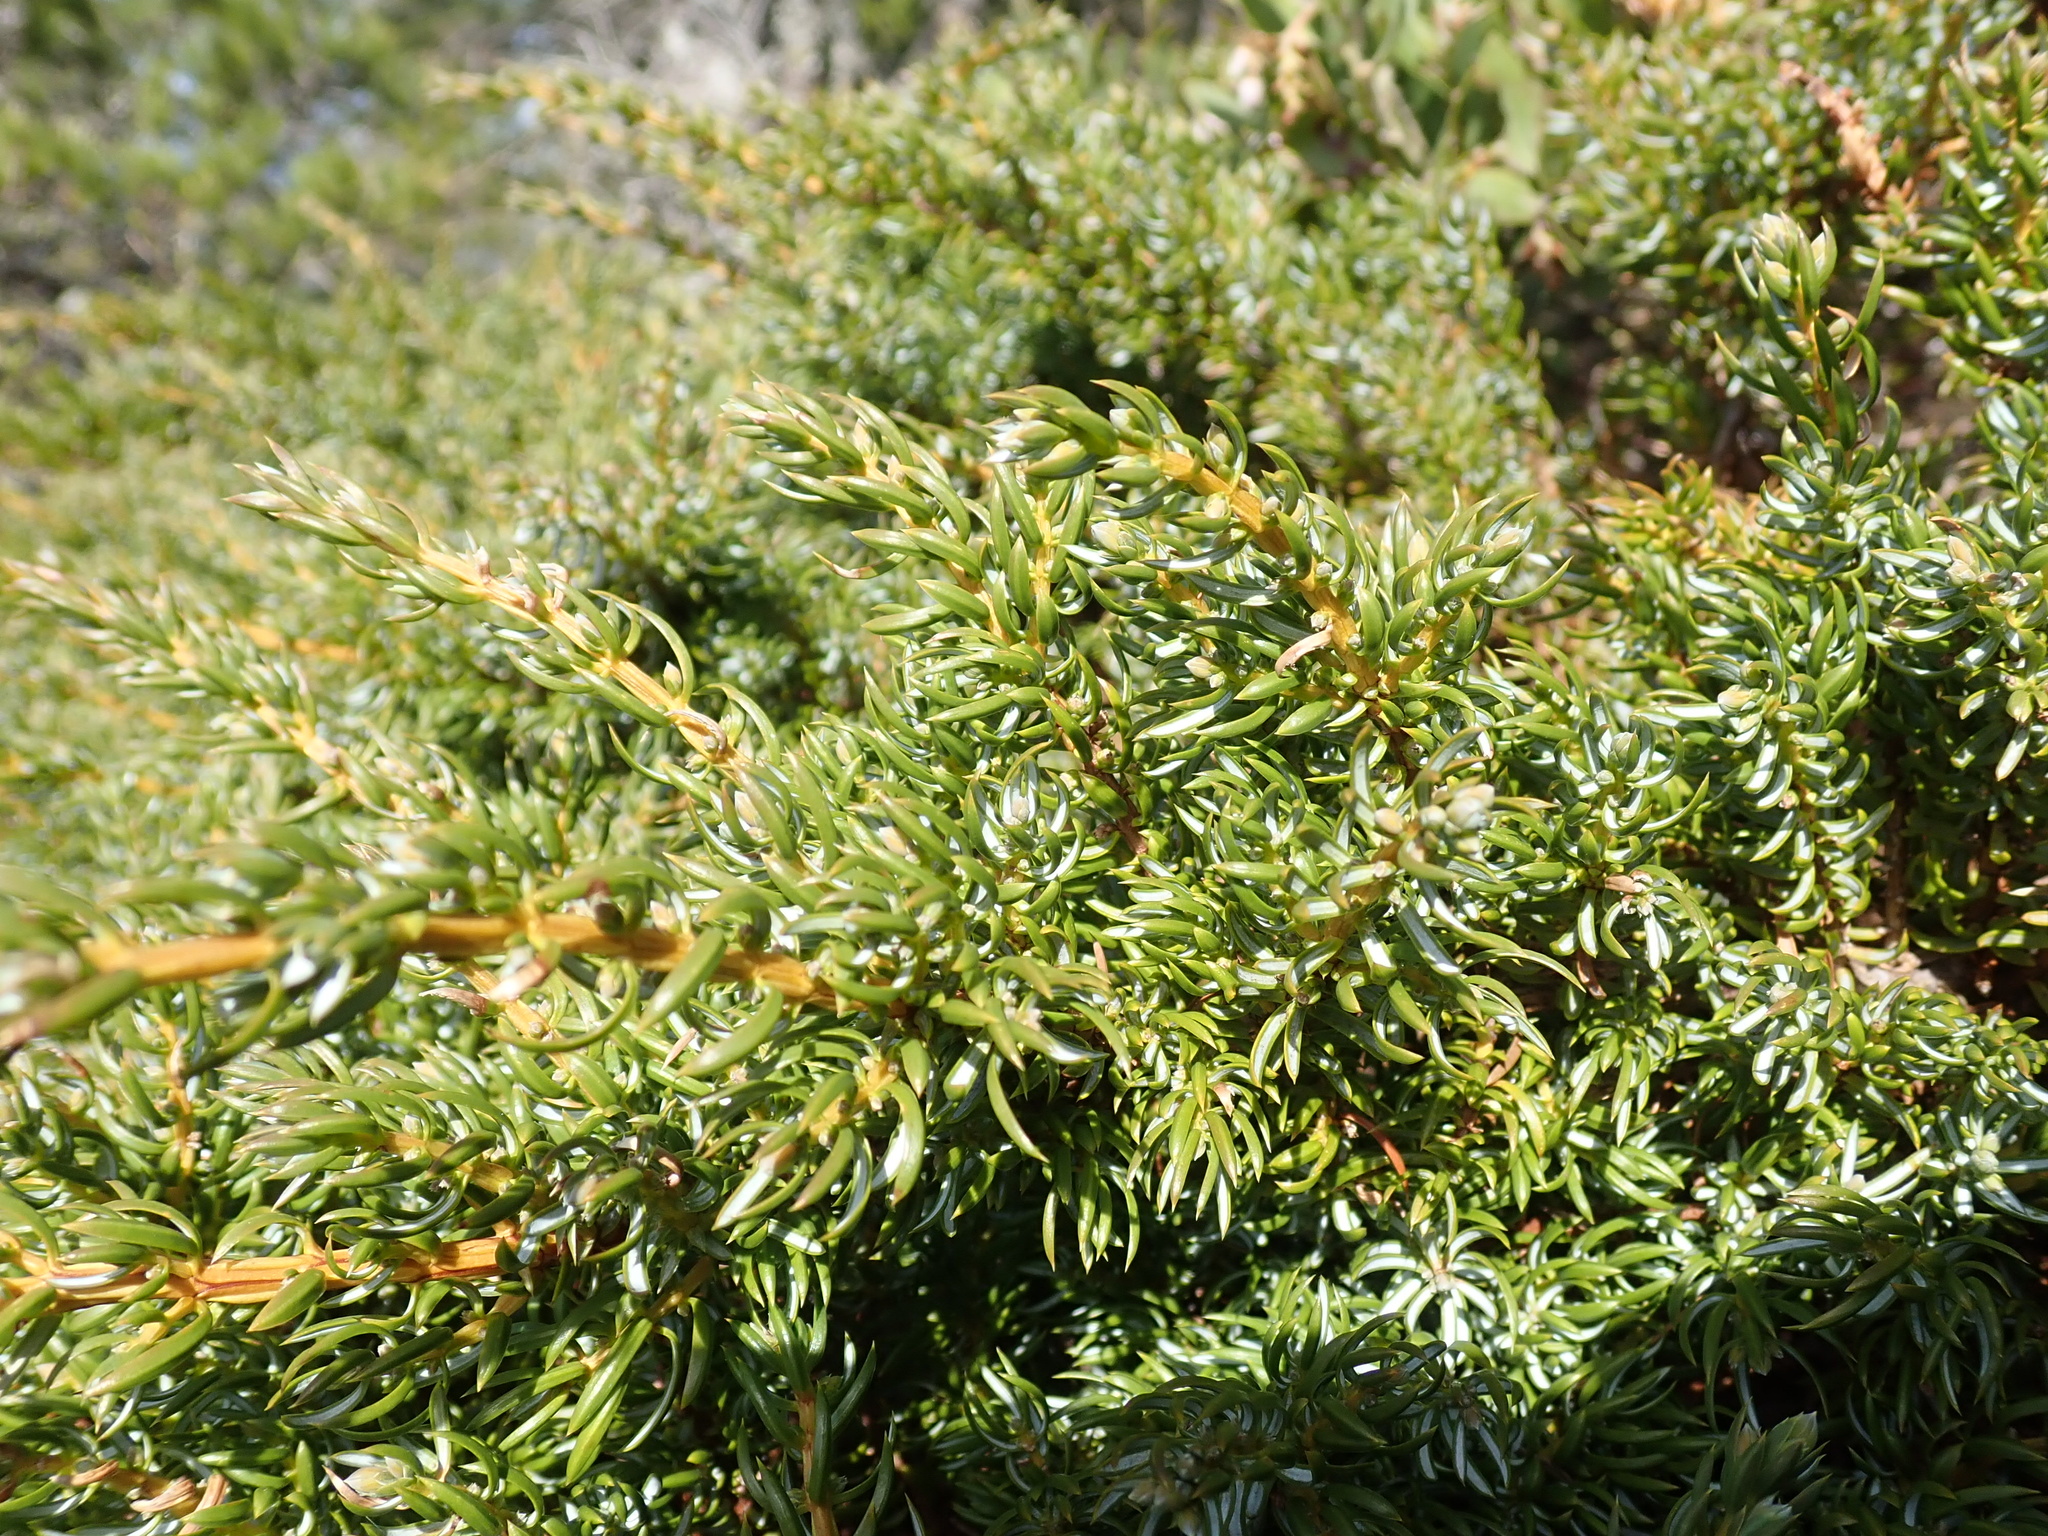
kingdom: Plantae
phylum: Tracheophyta
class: Pinopsida
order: Pinales
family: Cupressaceae
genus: Juniperus
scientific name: Juniperus communis
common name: Common juniper
